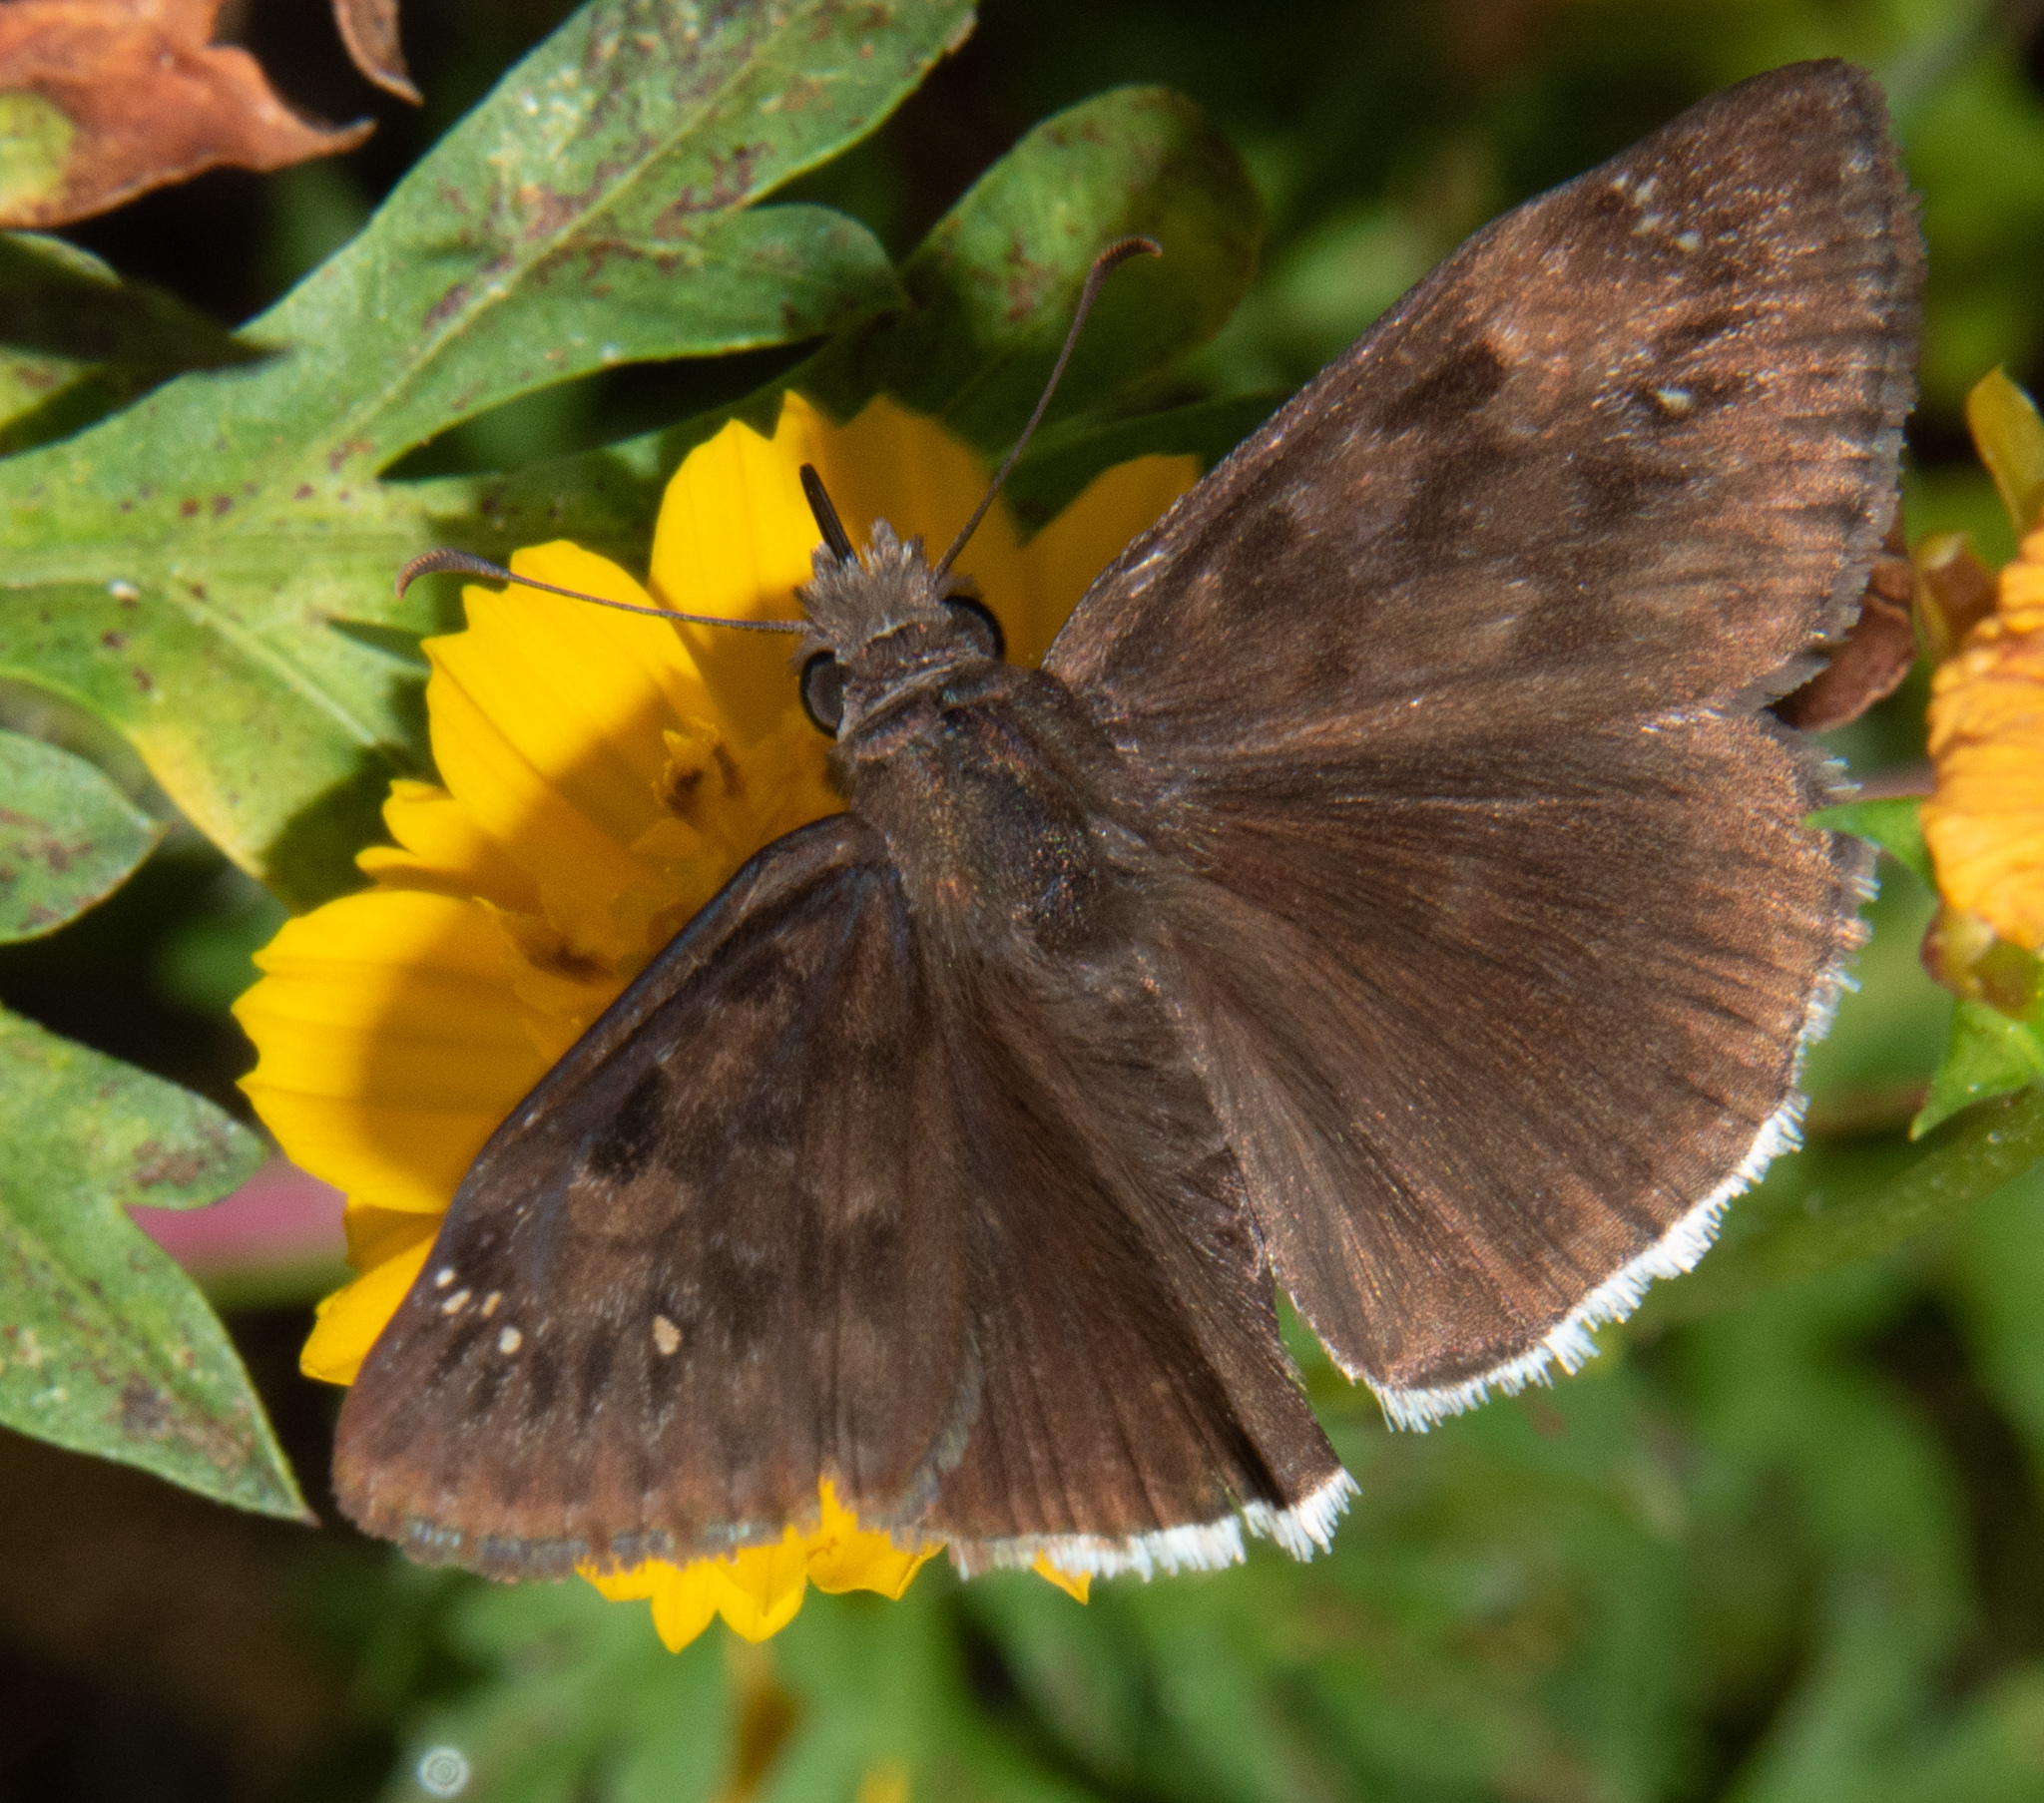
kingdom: Animalia
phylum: Arthropoda
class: Insecta
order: Lepidoptera
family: Hesperiidae
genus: Erynnis
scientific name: Erynnis tristis
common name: Mournful duskywing
